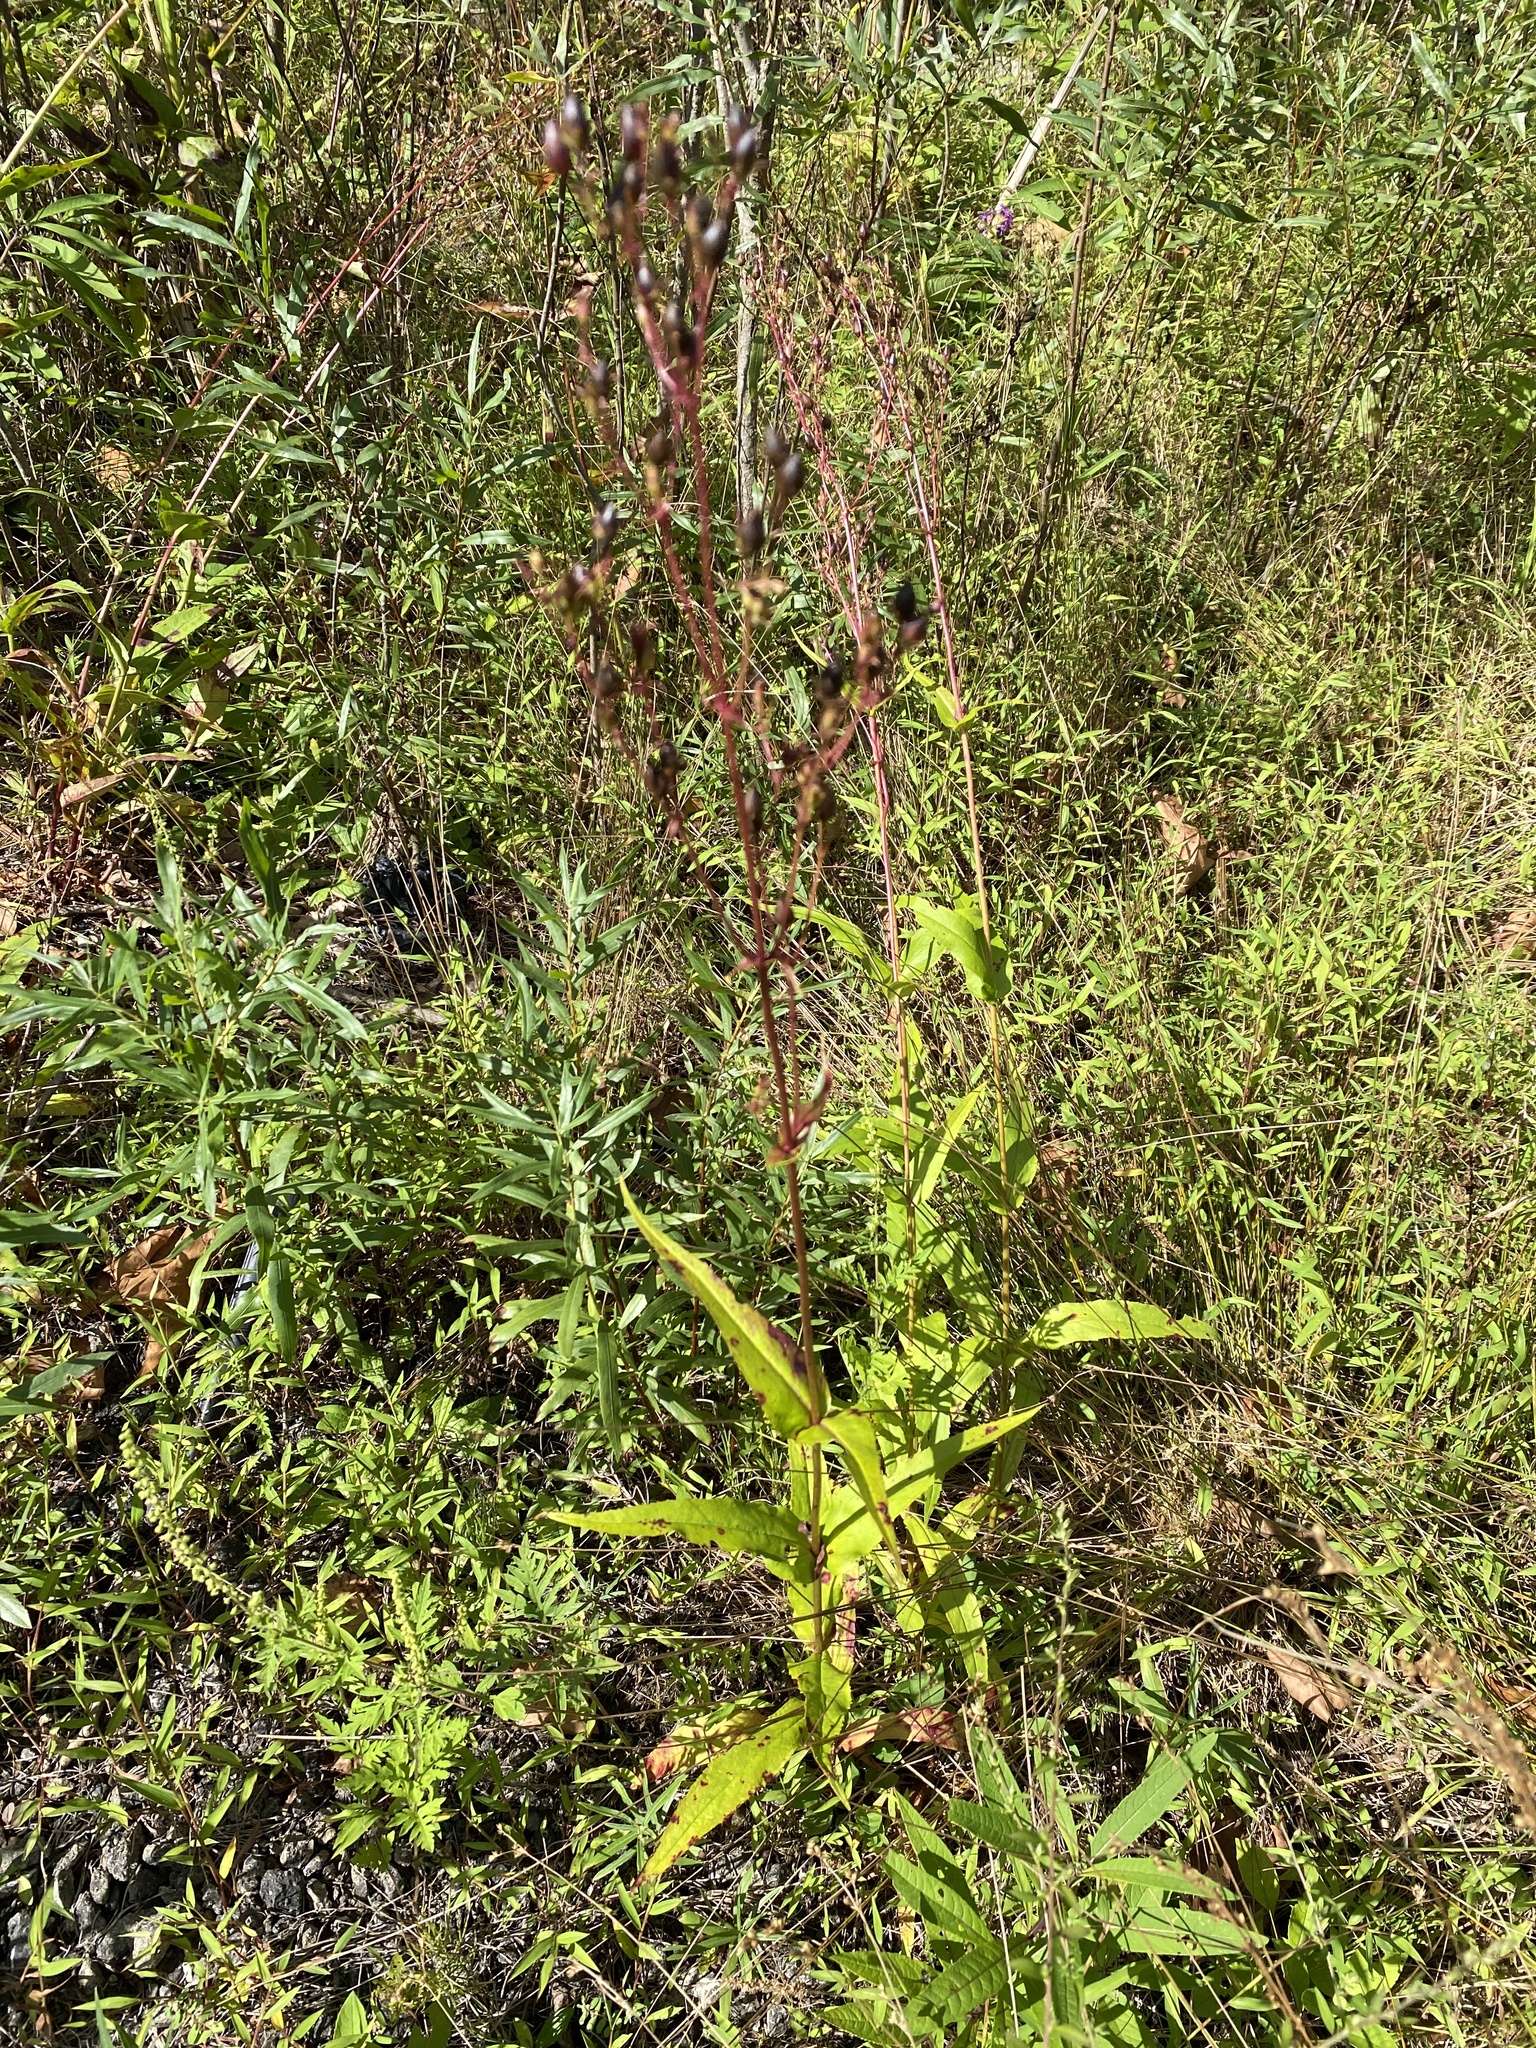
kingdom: Plantae
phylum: Tracheophyta
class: Magnoliopsida
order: Lamiales
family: Plantaginaceae
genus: Penstemon
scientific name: Penstemon digitalis
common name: Foxglove beardtongue
